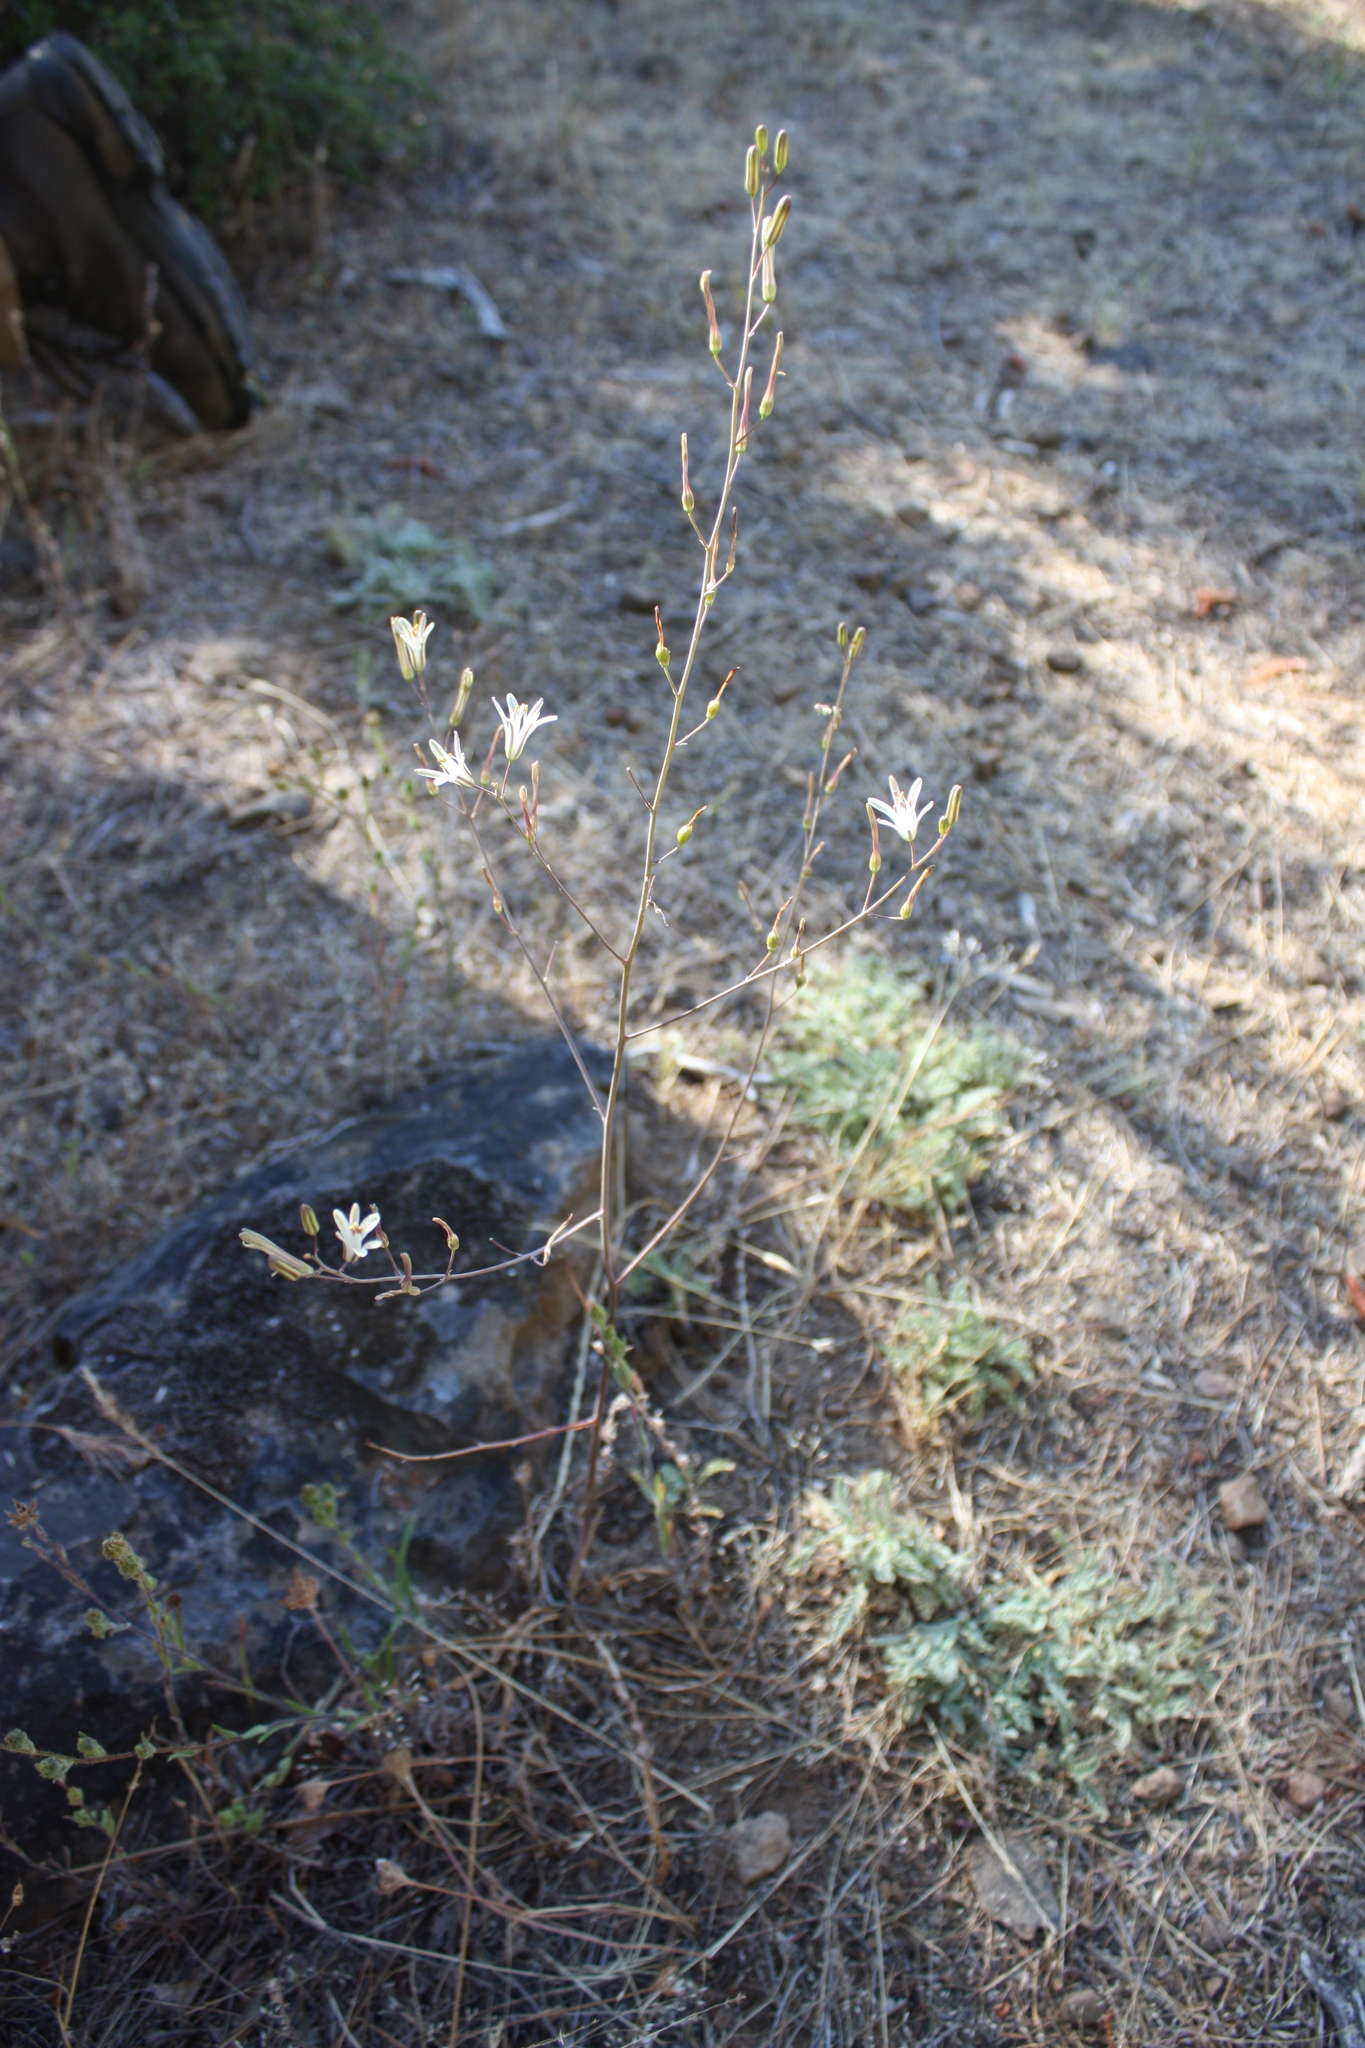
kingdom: Plantae
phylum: Tracheophyta
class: Liliopsida
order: Asparagales
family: Asparagaceae
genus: Chlorogalum
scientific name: Chlorogalum angustifolium
